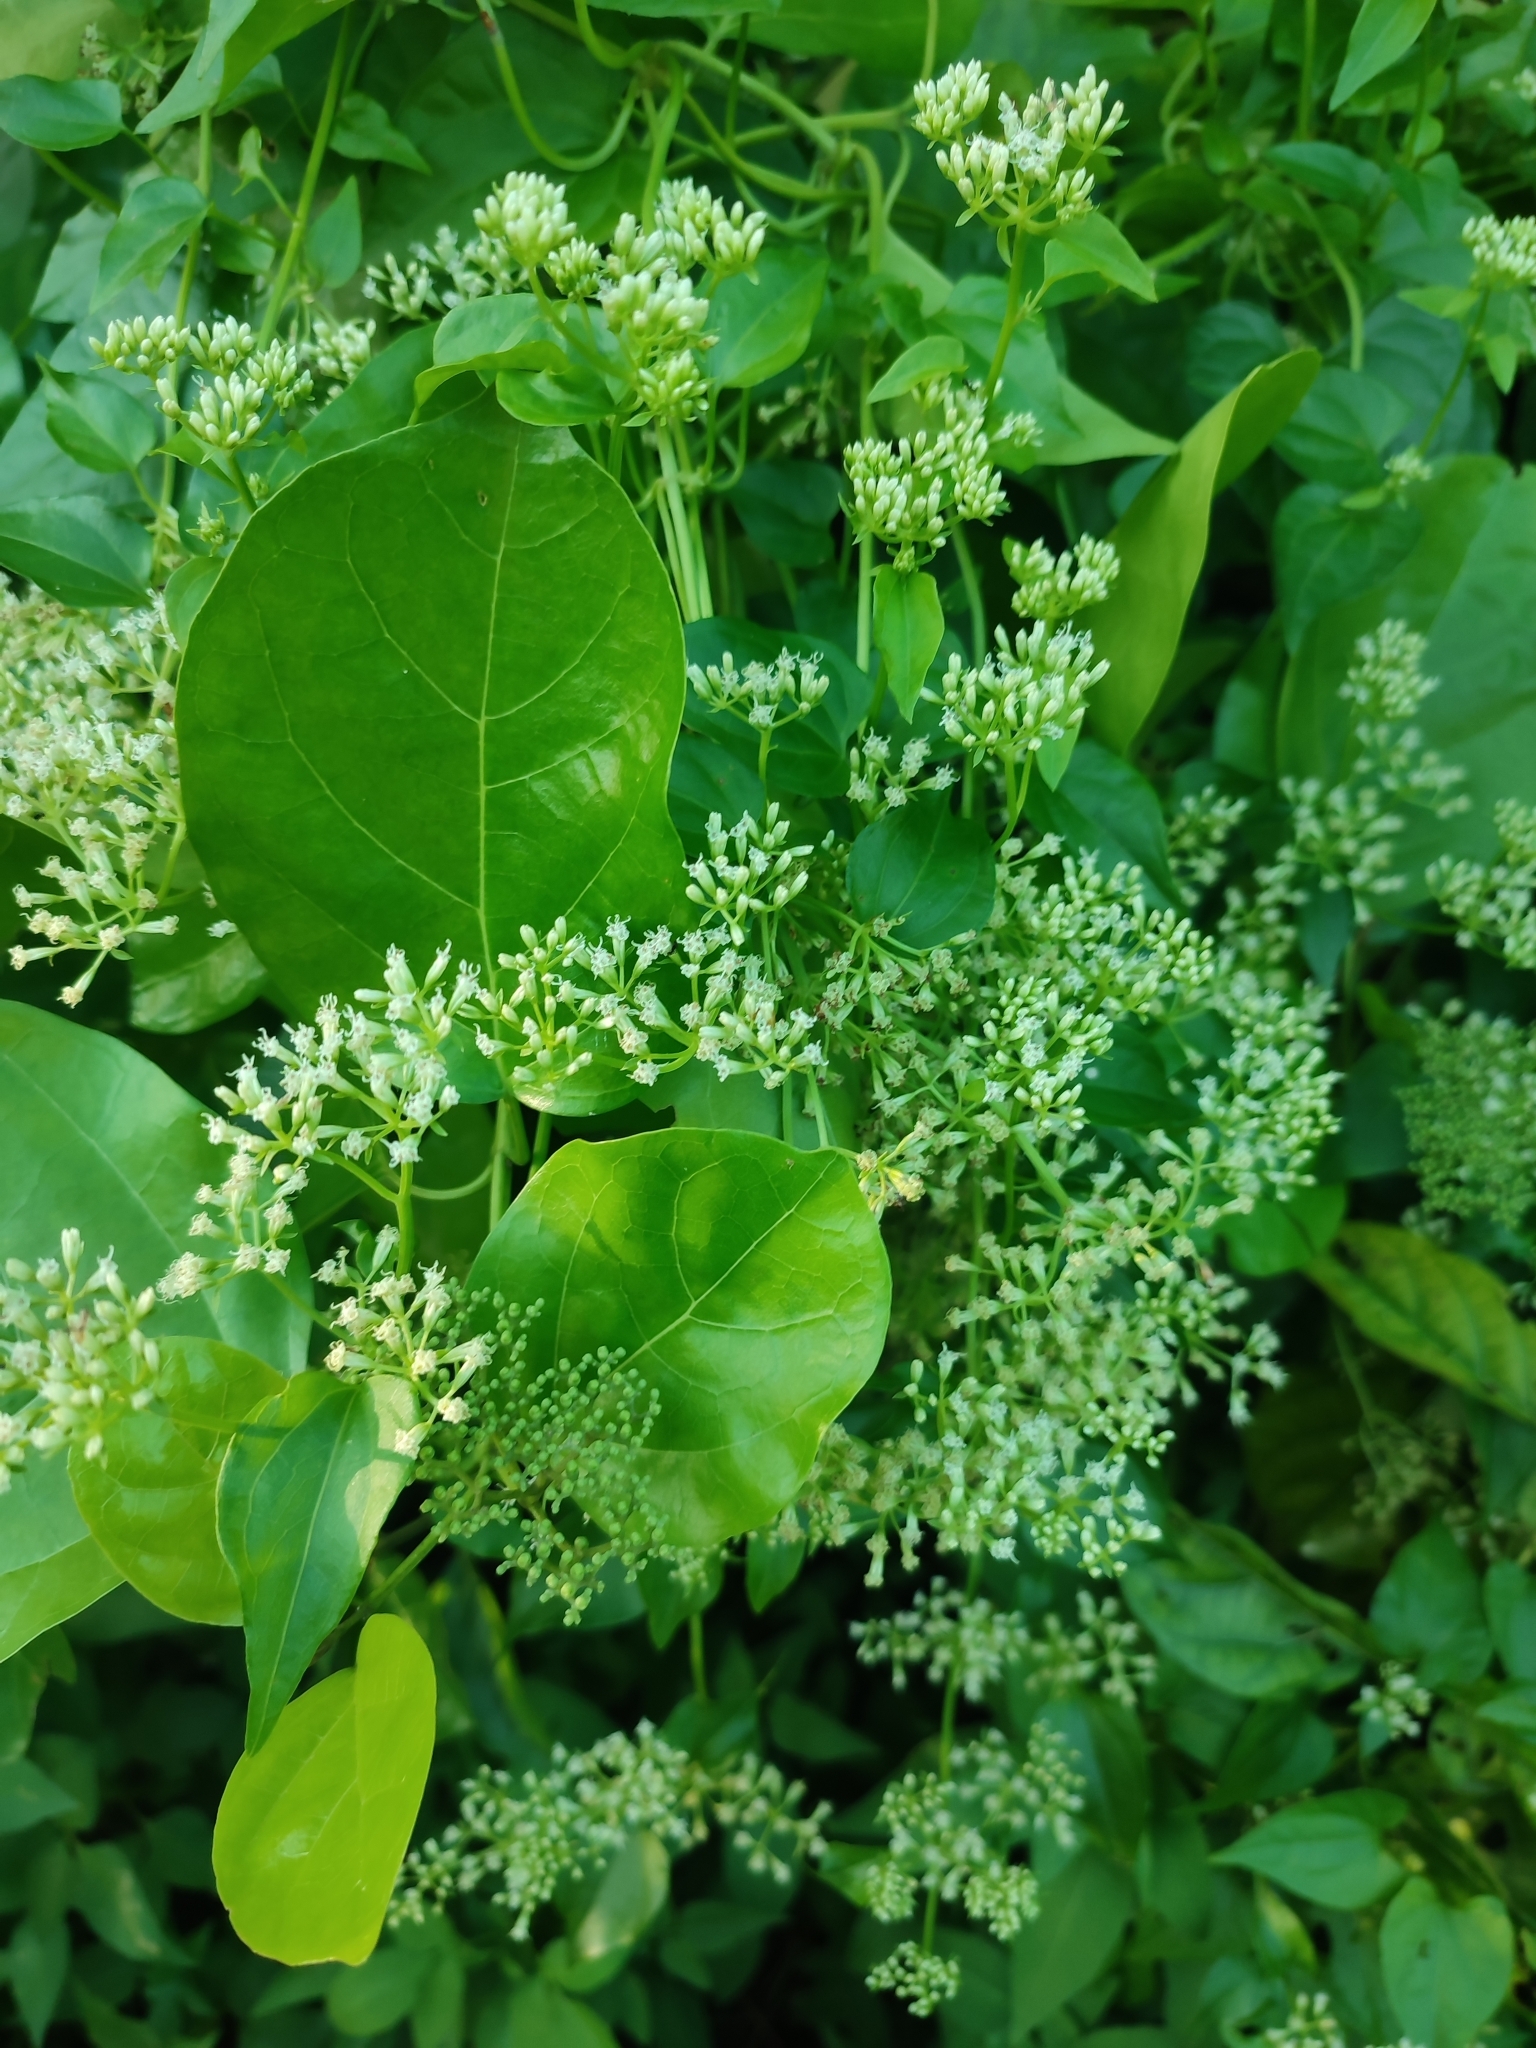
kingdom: Plantae
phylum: Tracheophyta
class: Magnoliopsida
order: Asterales
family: Asteraceae
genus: Mikania
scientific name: Mikania micrantha
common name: Mile-a-minute
